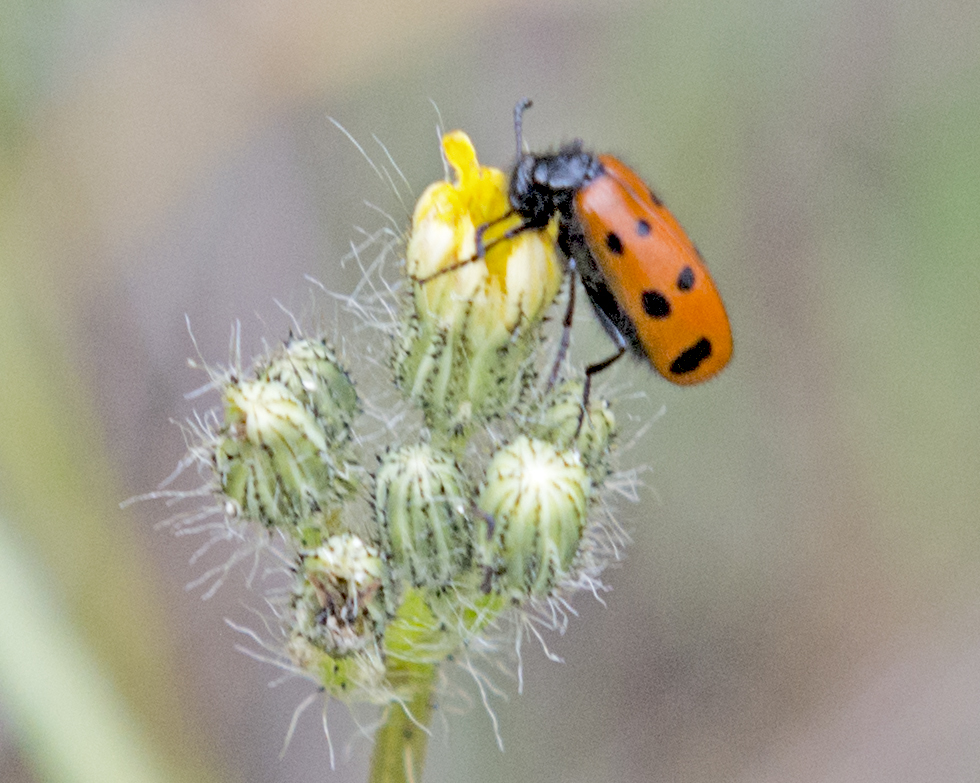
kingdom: Animalia
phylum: Arthropoda
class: Insecta
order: Coleoptera
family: Meloidae
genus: Mylabris
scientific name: Mylabris fabricii
